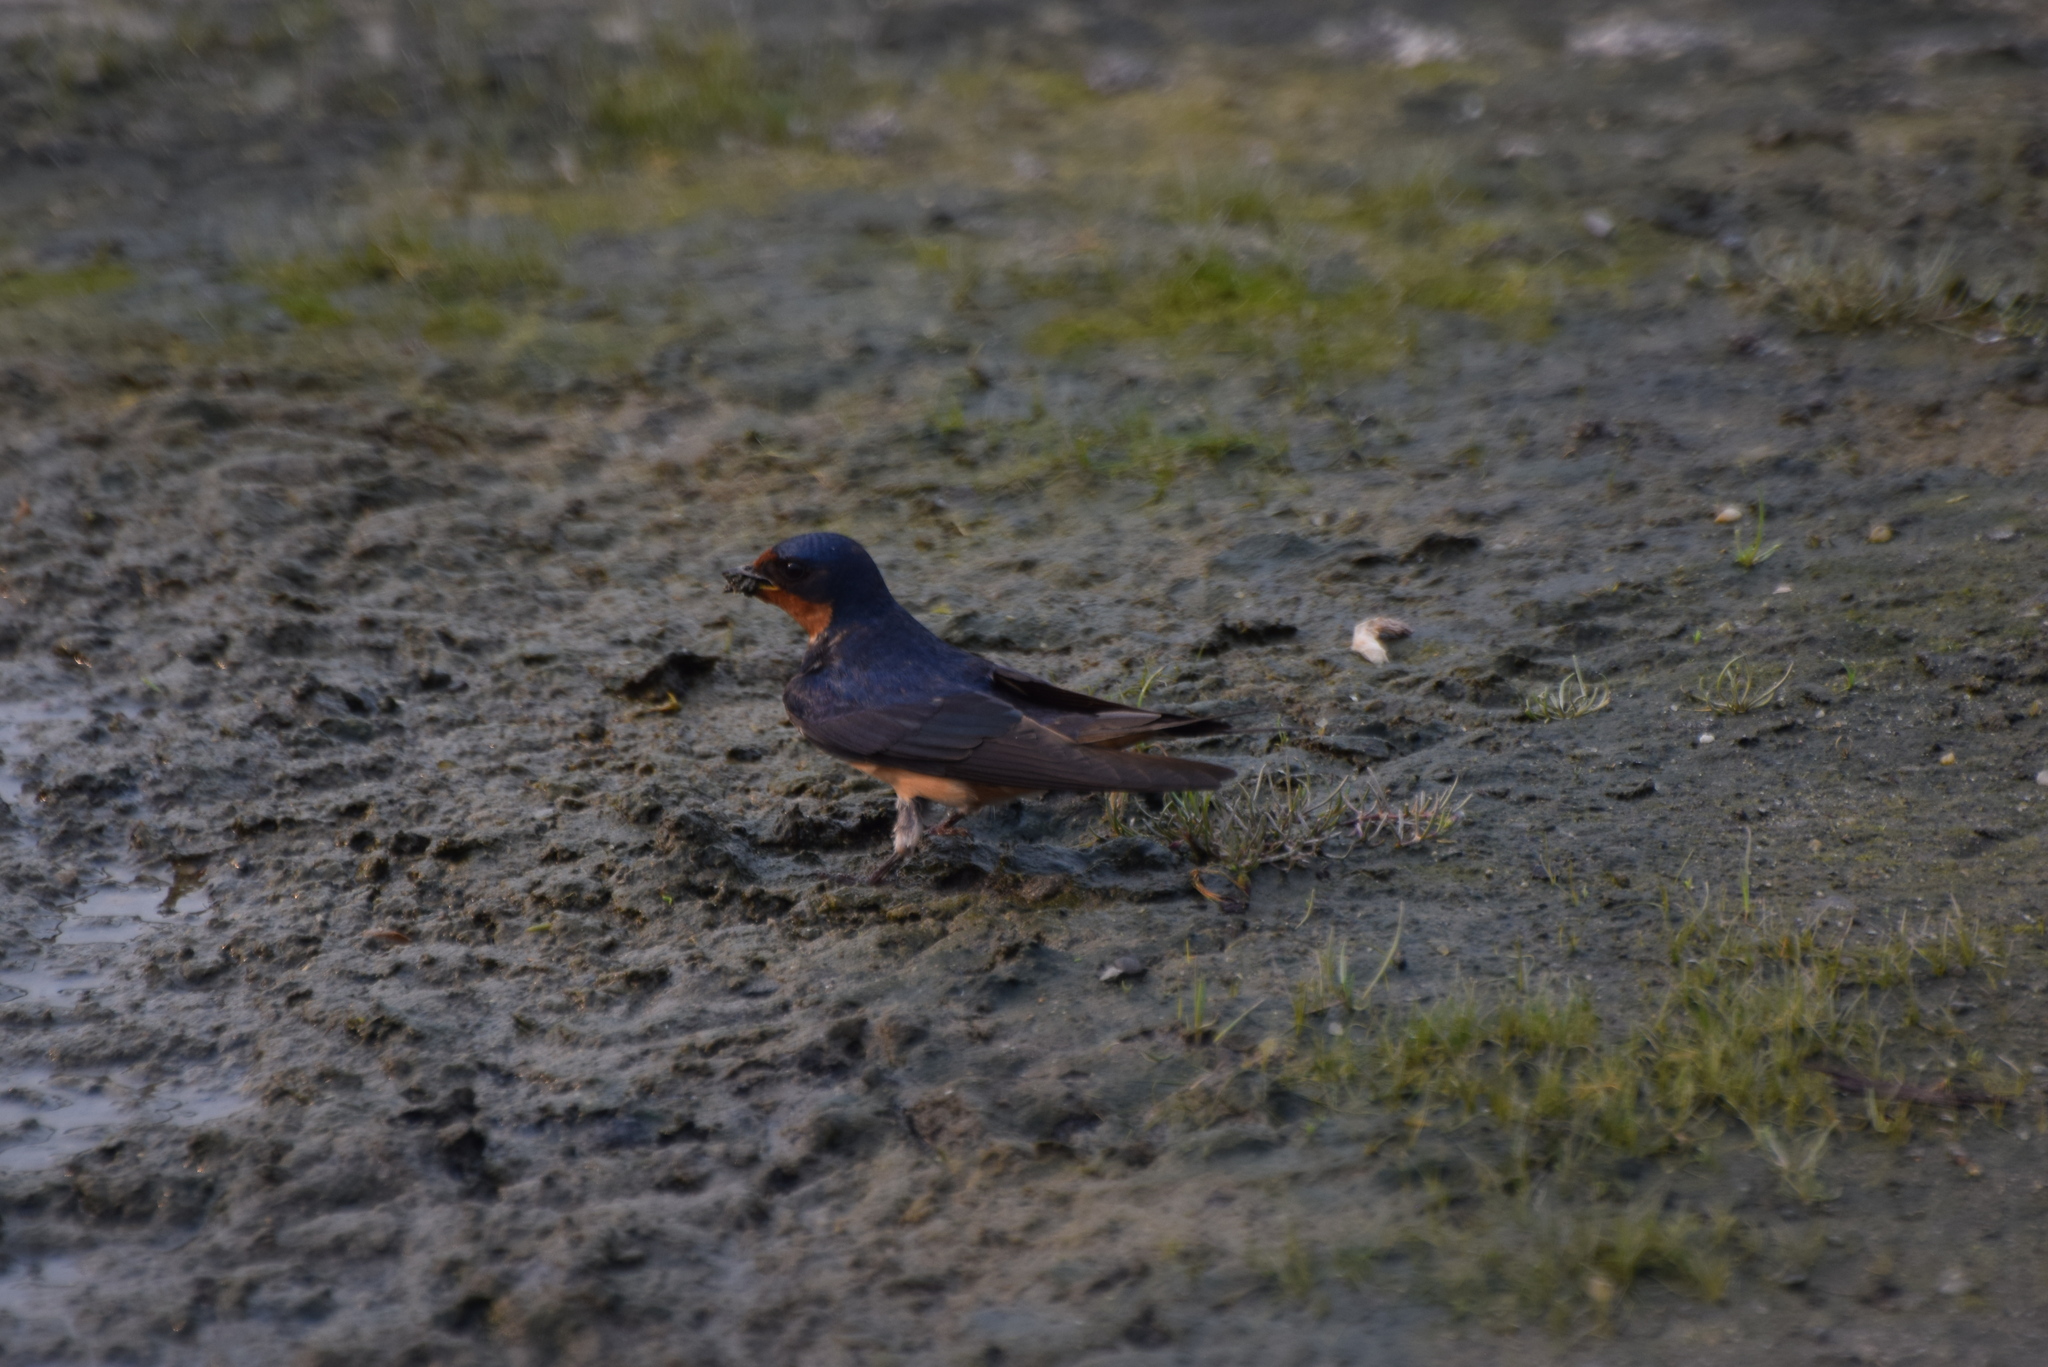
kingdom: Animalia
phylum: Chordata
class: Aves
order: Passeriformes
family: Hirundinidae
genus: Hirundo
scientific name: Hirundo rustica
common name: Barn swallow
